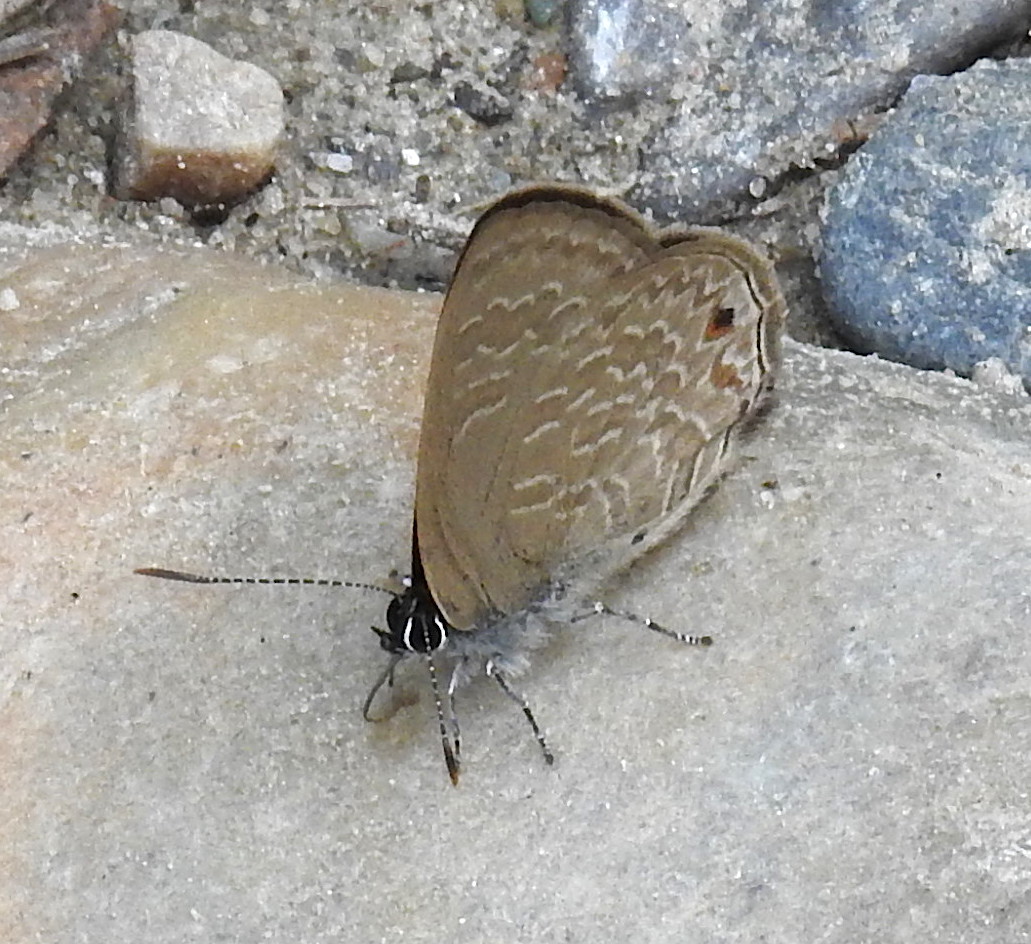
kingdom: Animalia
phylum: Arthropoda
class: Insecta
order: Lepidoptera
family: Lycaenidae
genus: Anthene
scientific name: Anthene emolus
